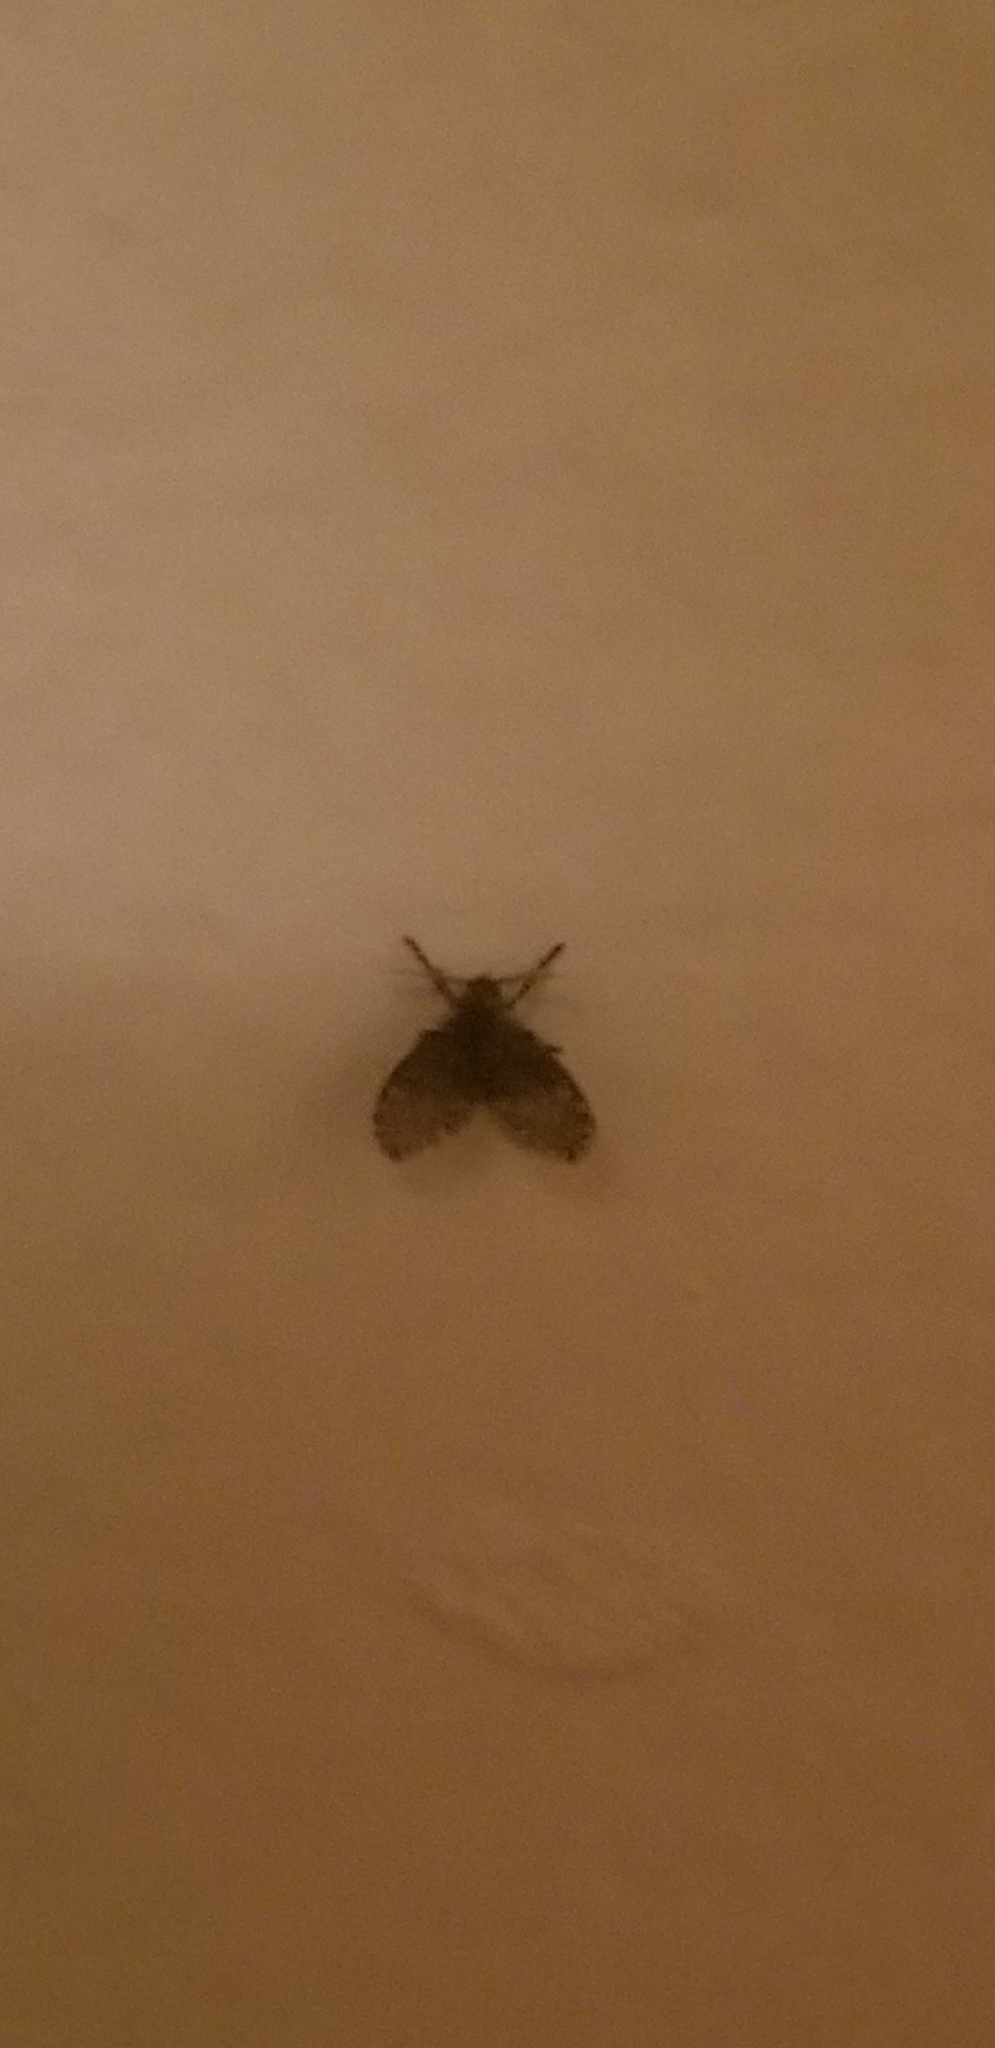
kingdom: Animalia
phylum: Arthropoda
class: Insecta
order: Diptera
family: Psychodidae
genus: Clogmia
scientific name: Clogmia albipunctatus
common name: White-spotted moth fly
